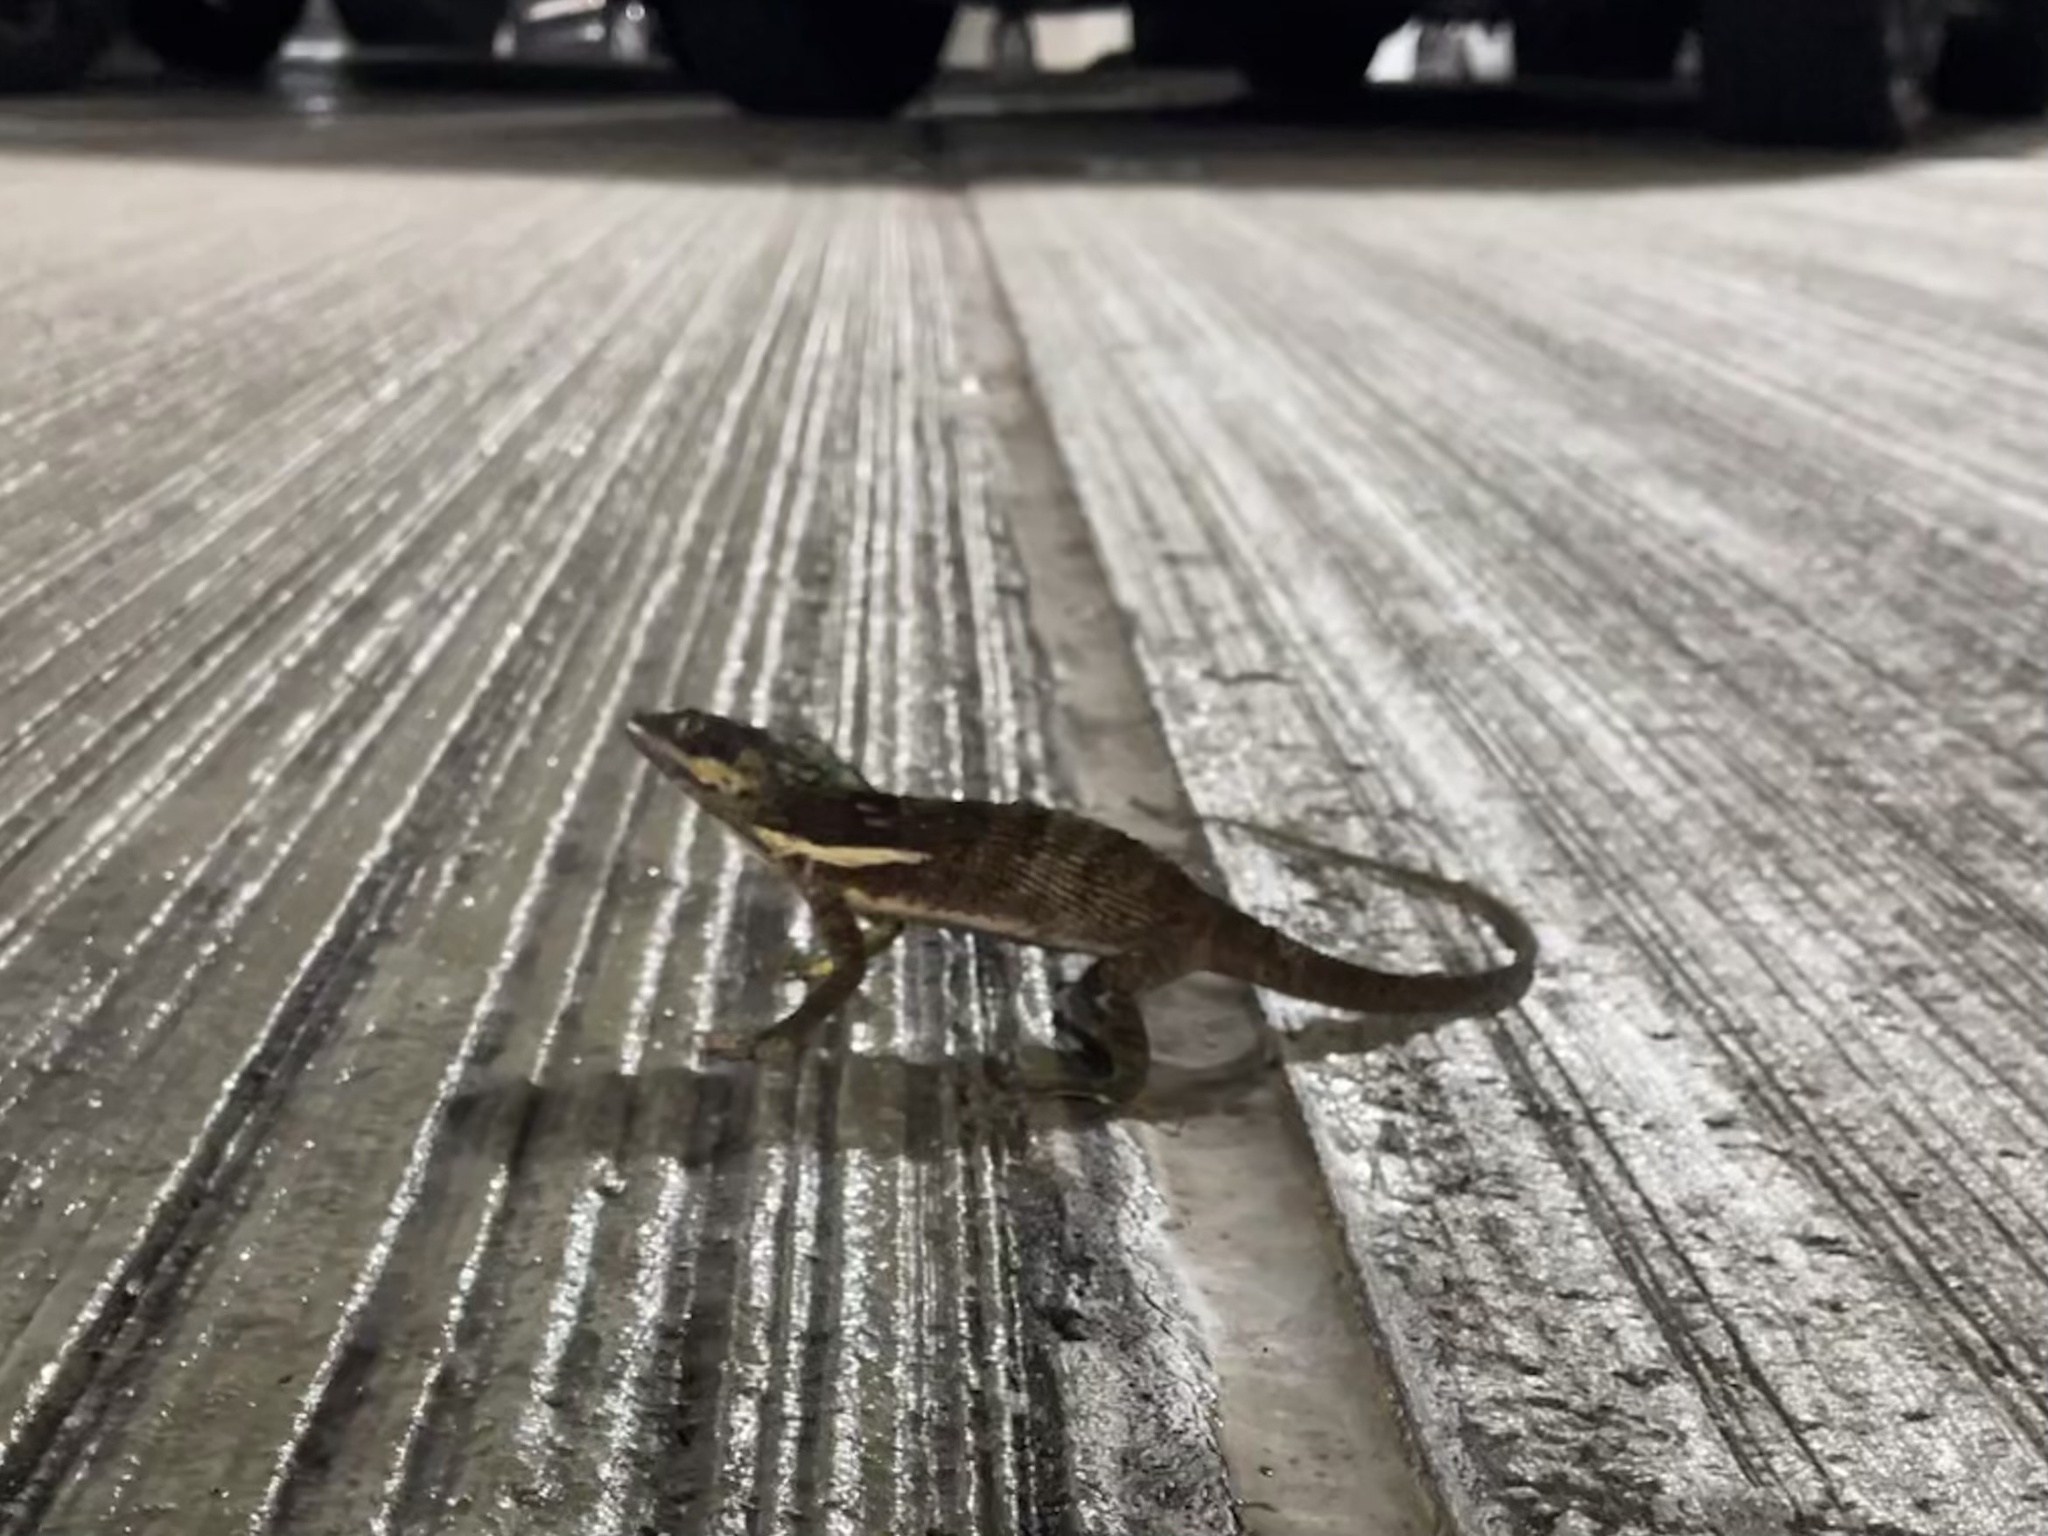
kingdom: Animalia
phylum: Chordata
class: Squamata
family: Dactyloidae
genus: Anolis
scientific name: Anolis equestris
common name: Knight anole
